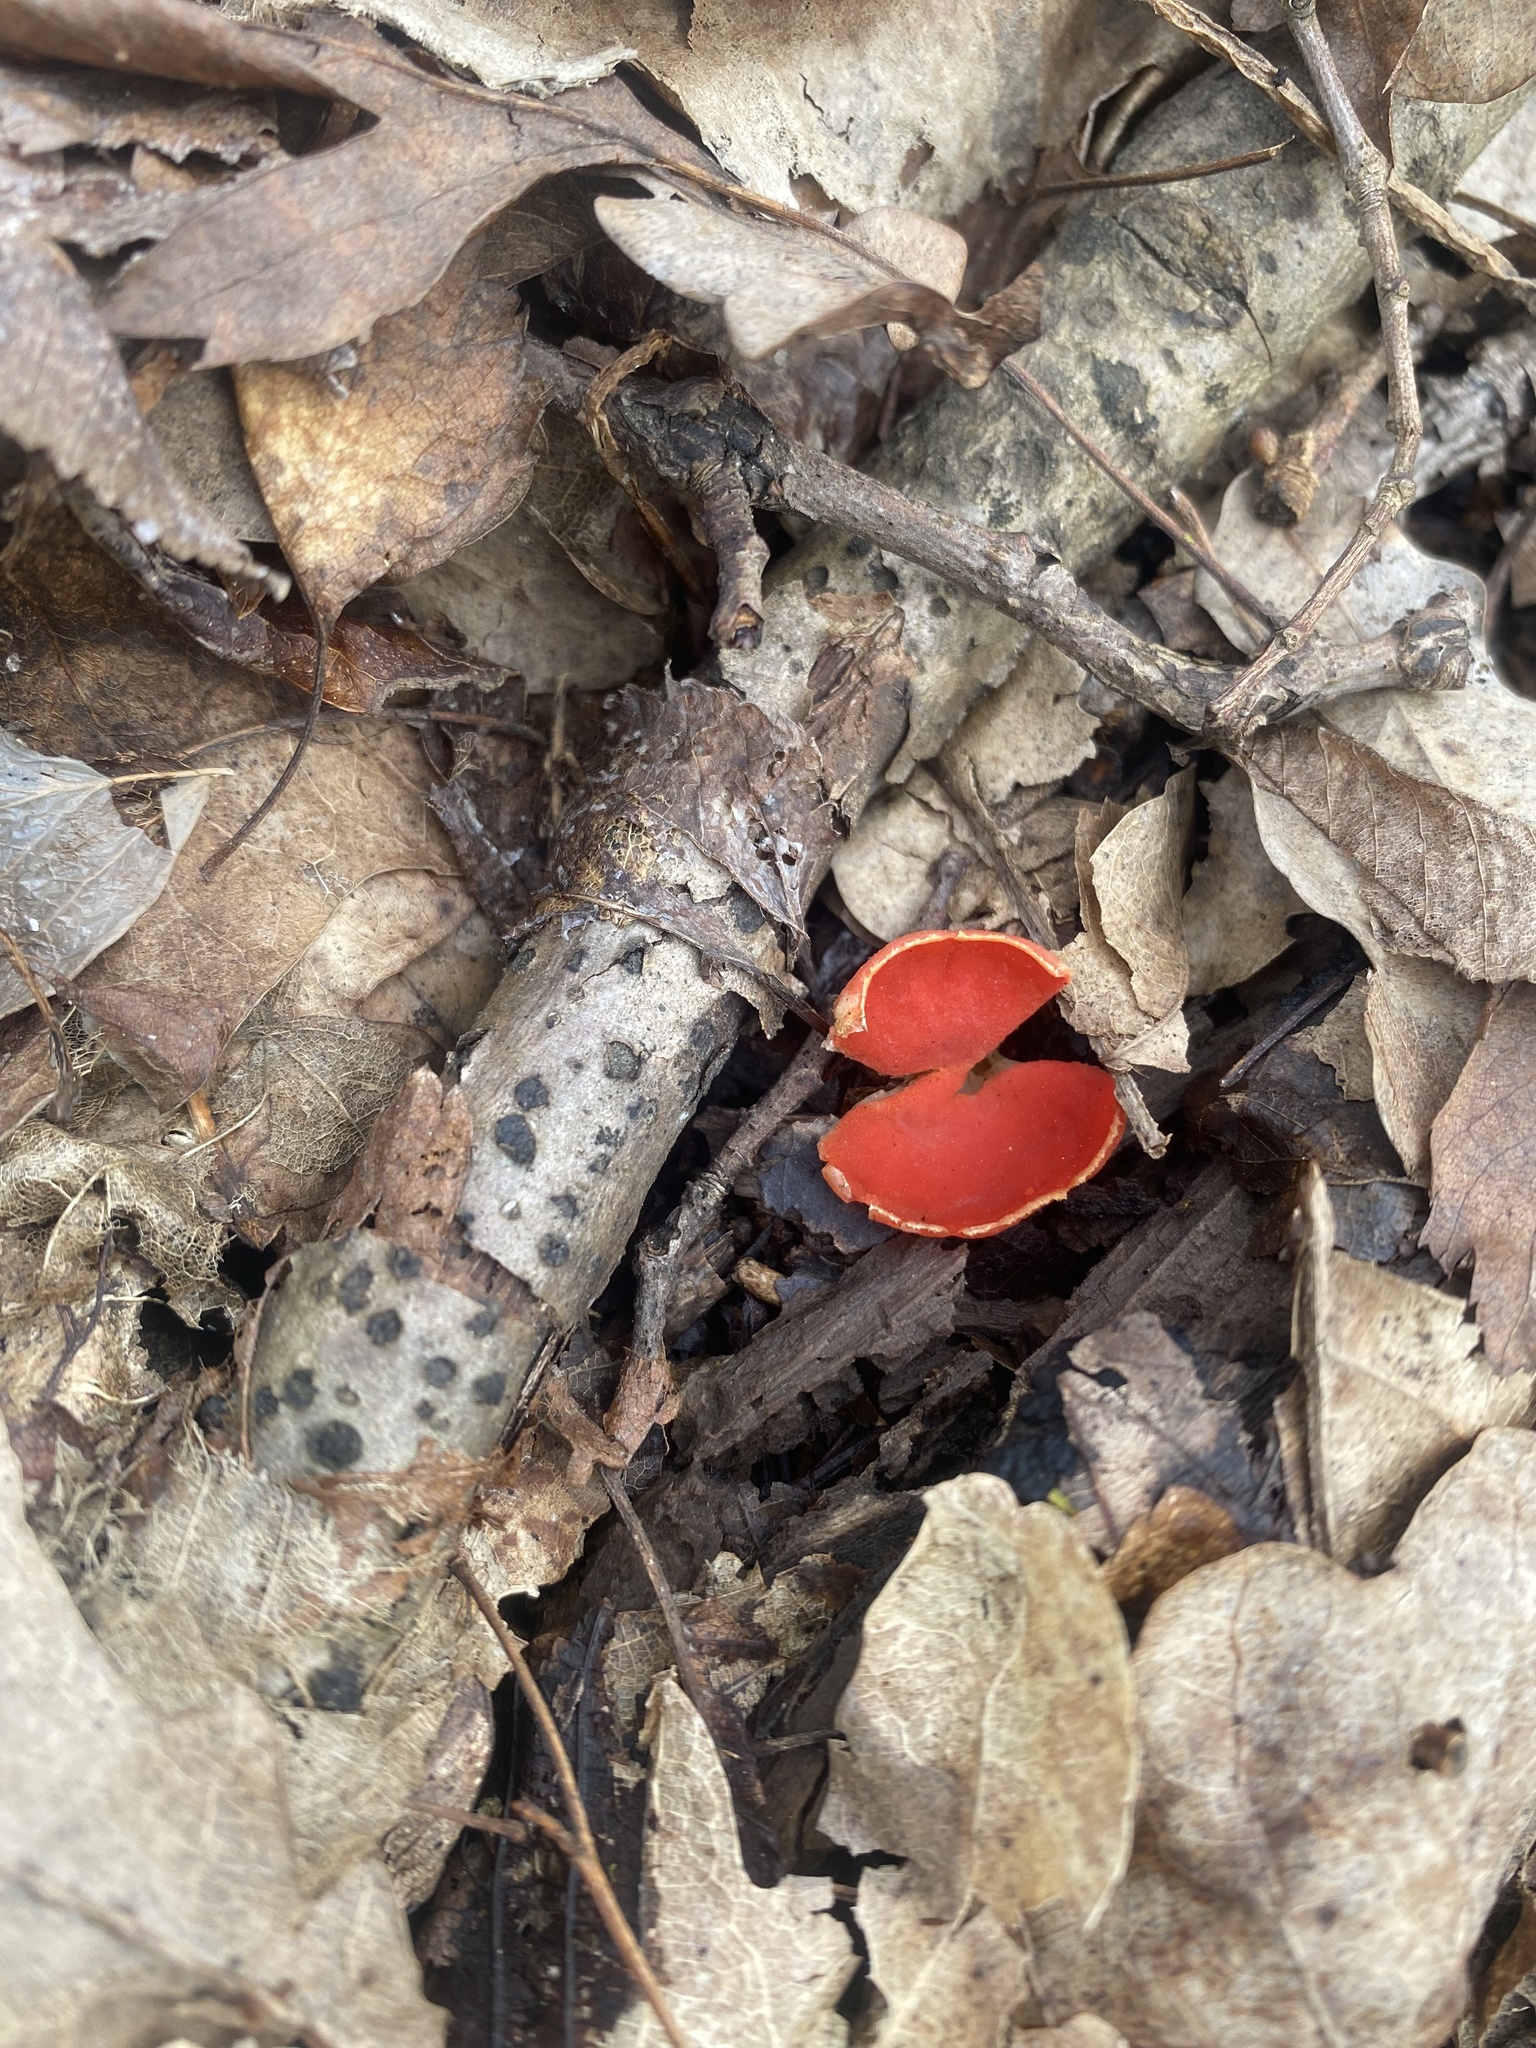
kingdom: Fungi
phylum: Ascomycota
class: Pezizomycetes
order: Pezizales
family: Sarcoscyphaceae
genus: Sarcoscypha
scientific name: Sarcoscypha
